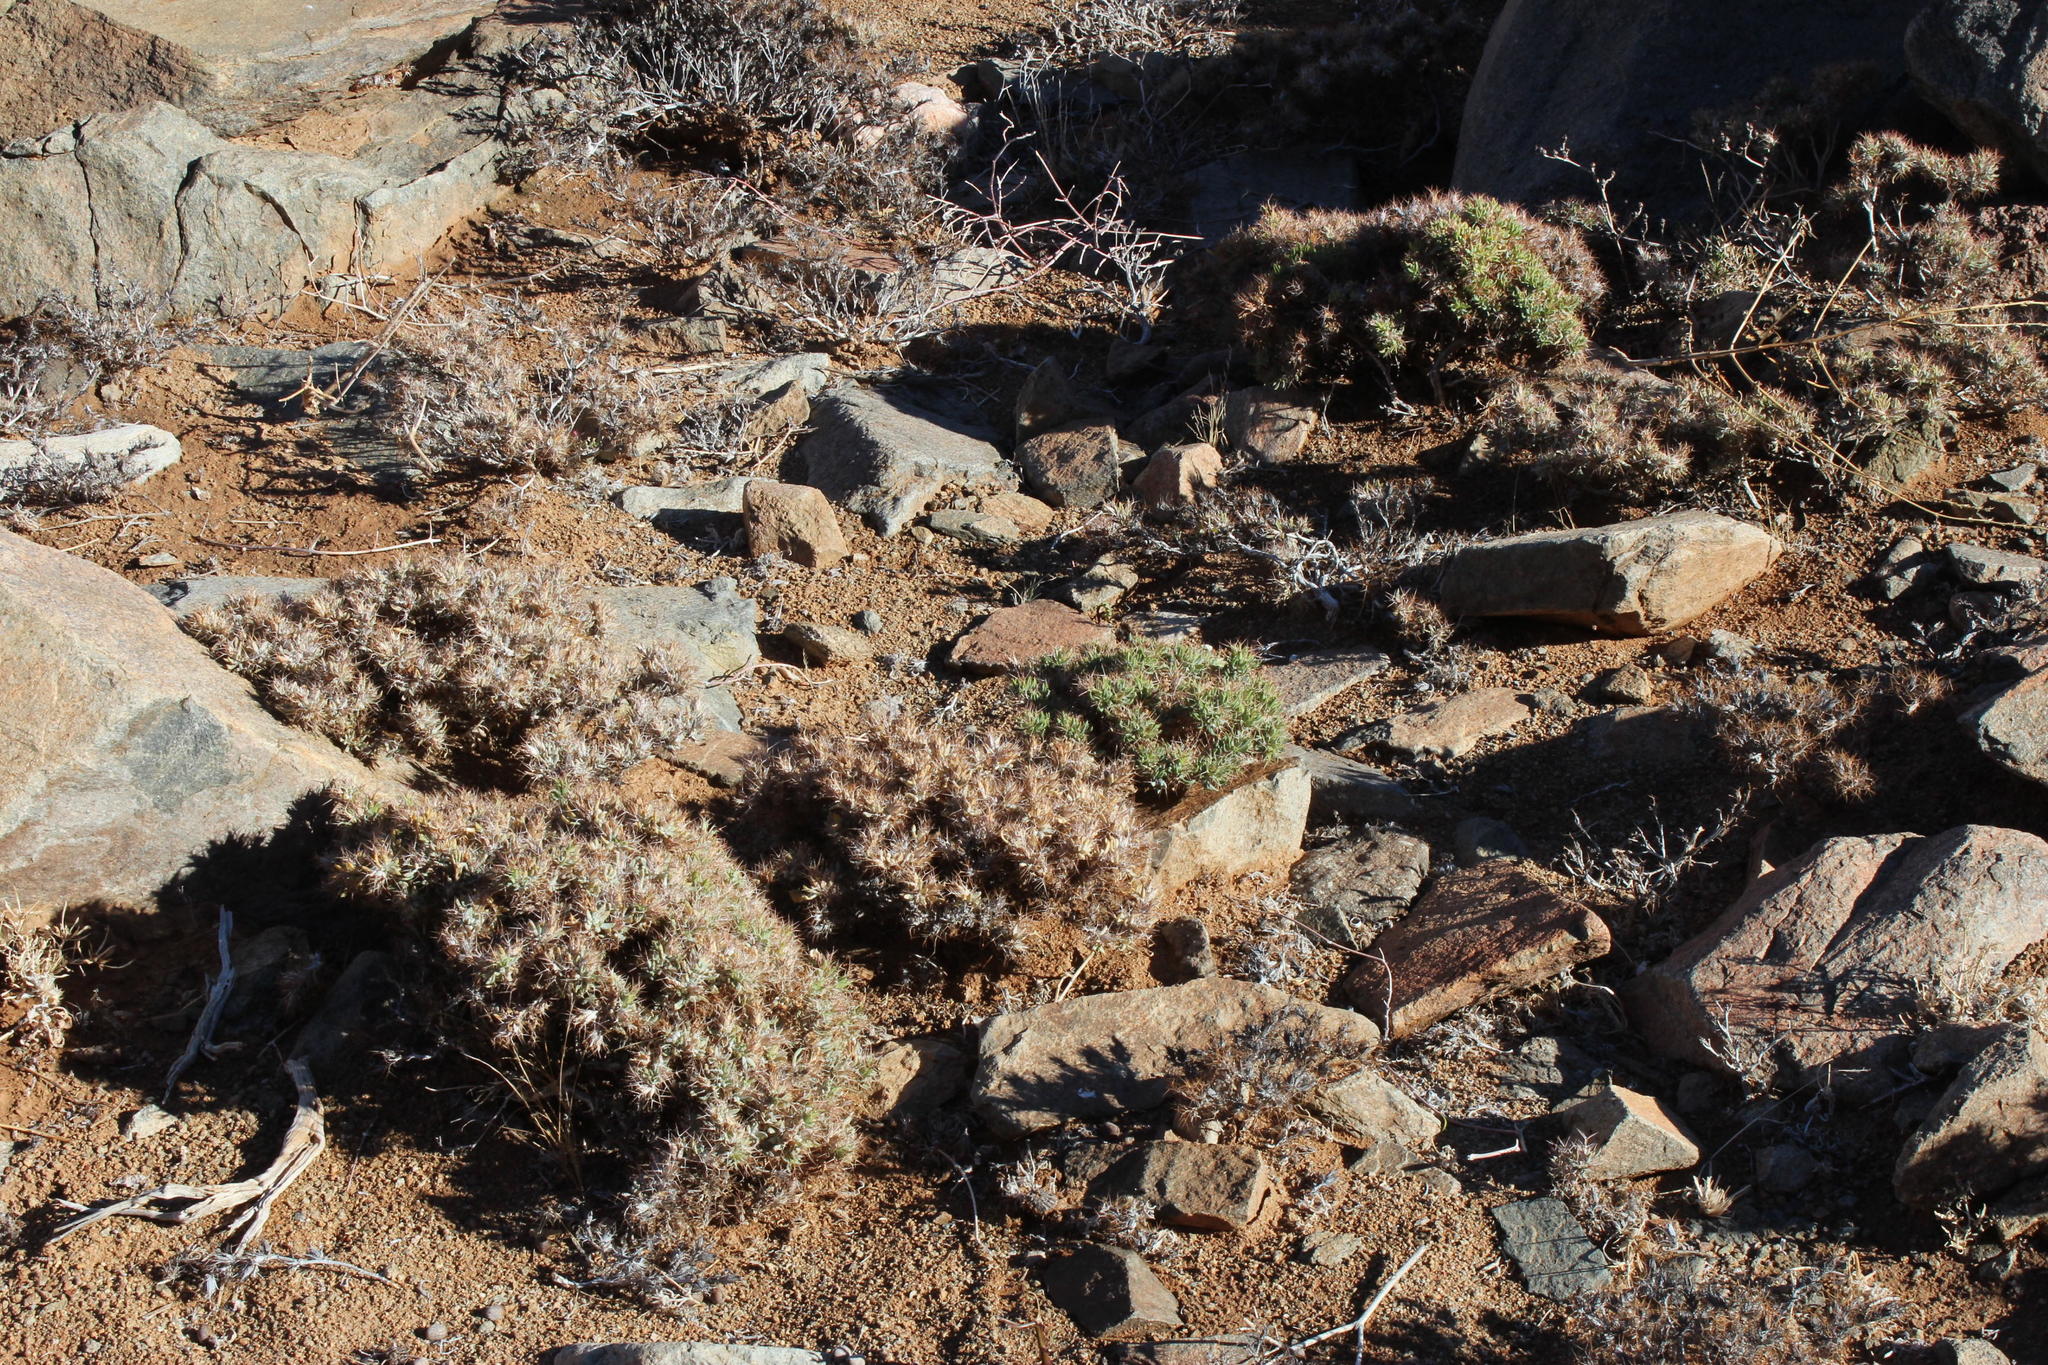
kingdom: Plantae
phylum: Tracheophyta
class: Magnoliopsida
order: Lamiales
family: Acanthaceae
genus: Blepharis
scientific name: Blepharis furcata
